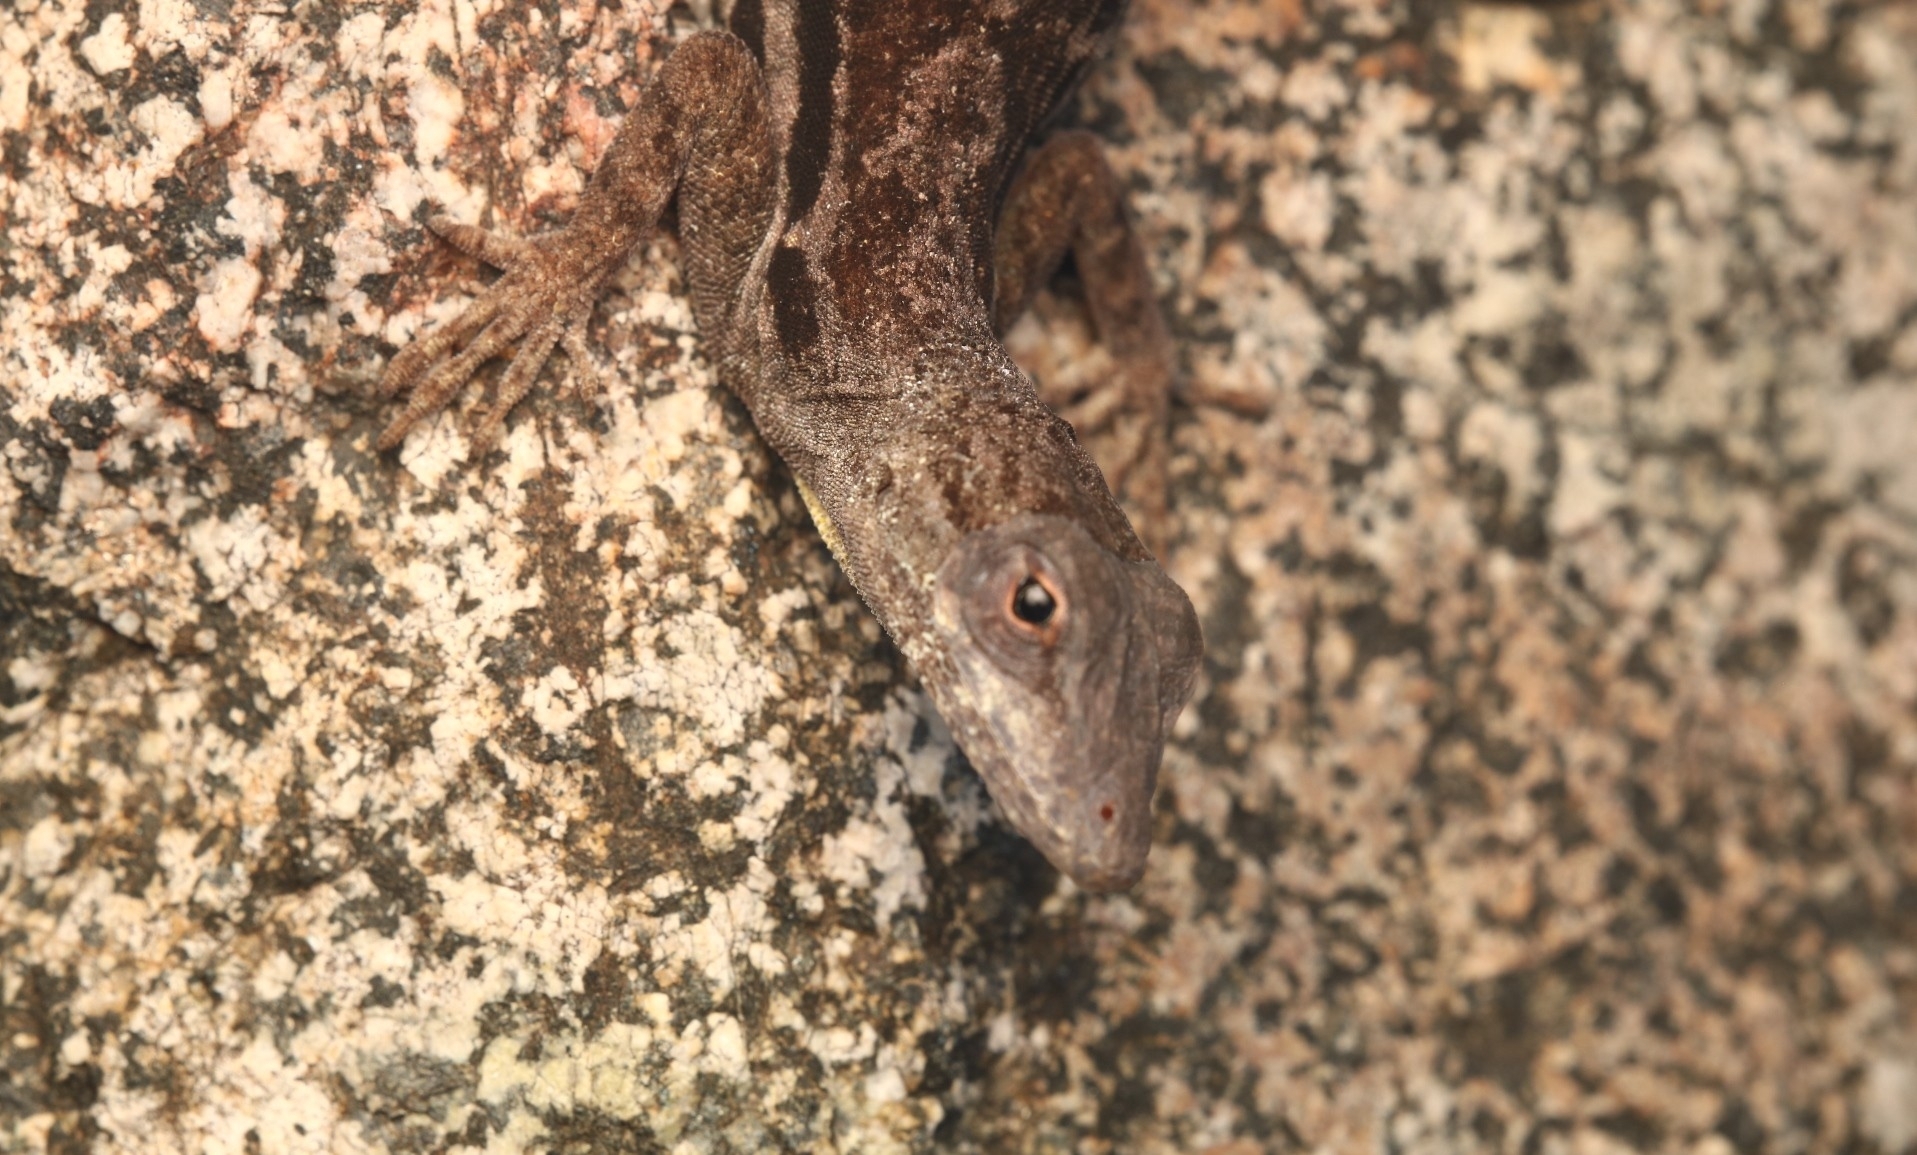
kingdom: Animalia
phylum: Chordata
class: Squamata
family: Dactyloidae
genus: Anolis
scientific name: Anolis lineatus
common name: Striped anole
